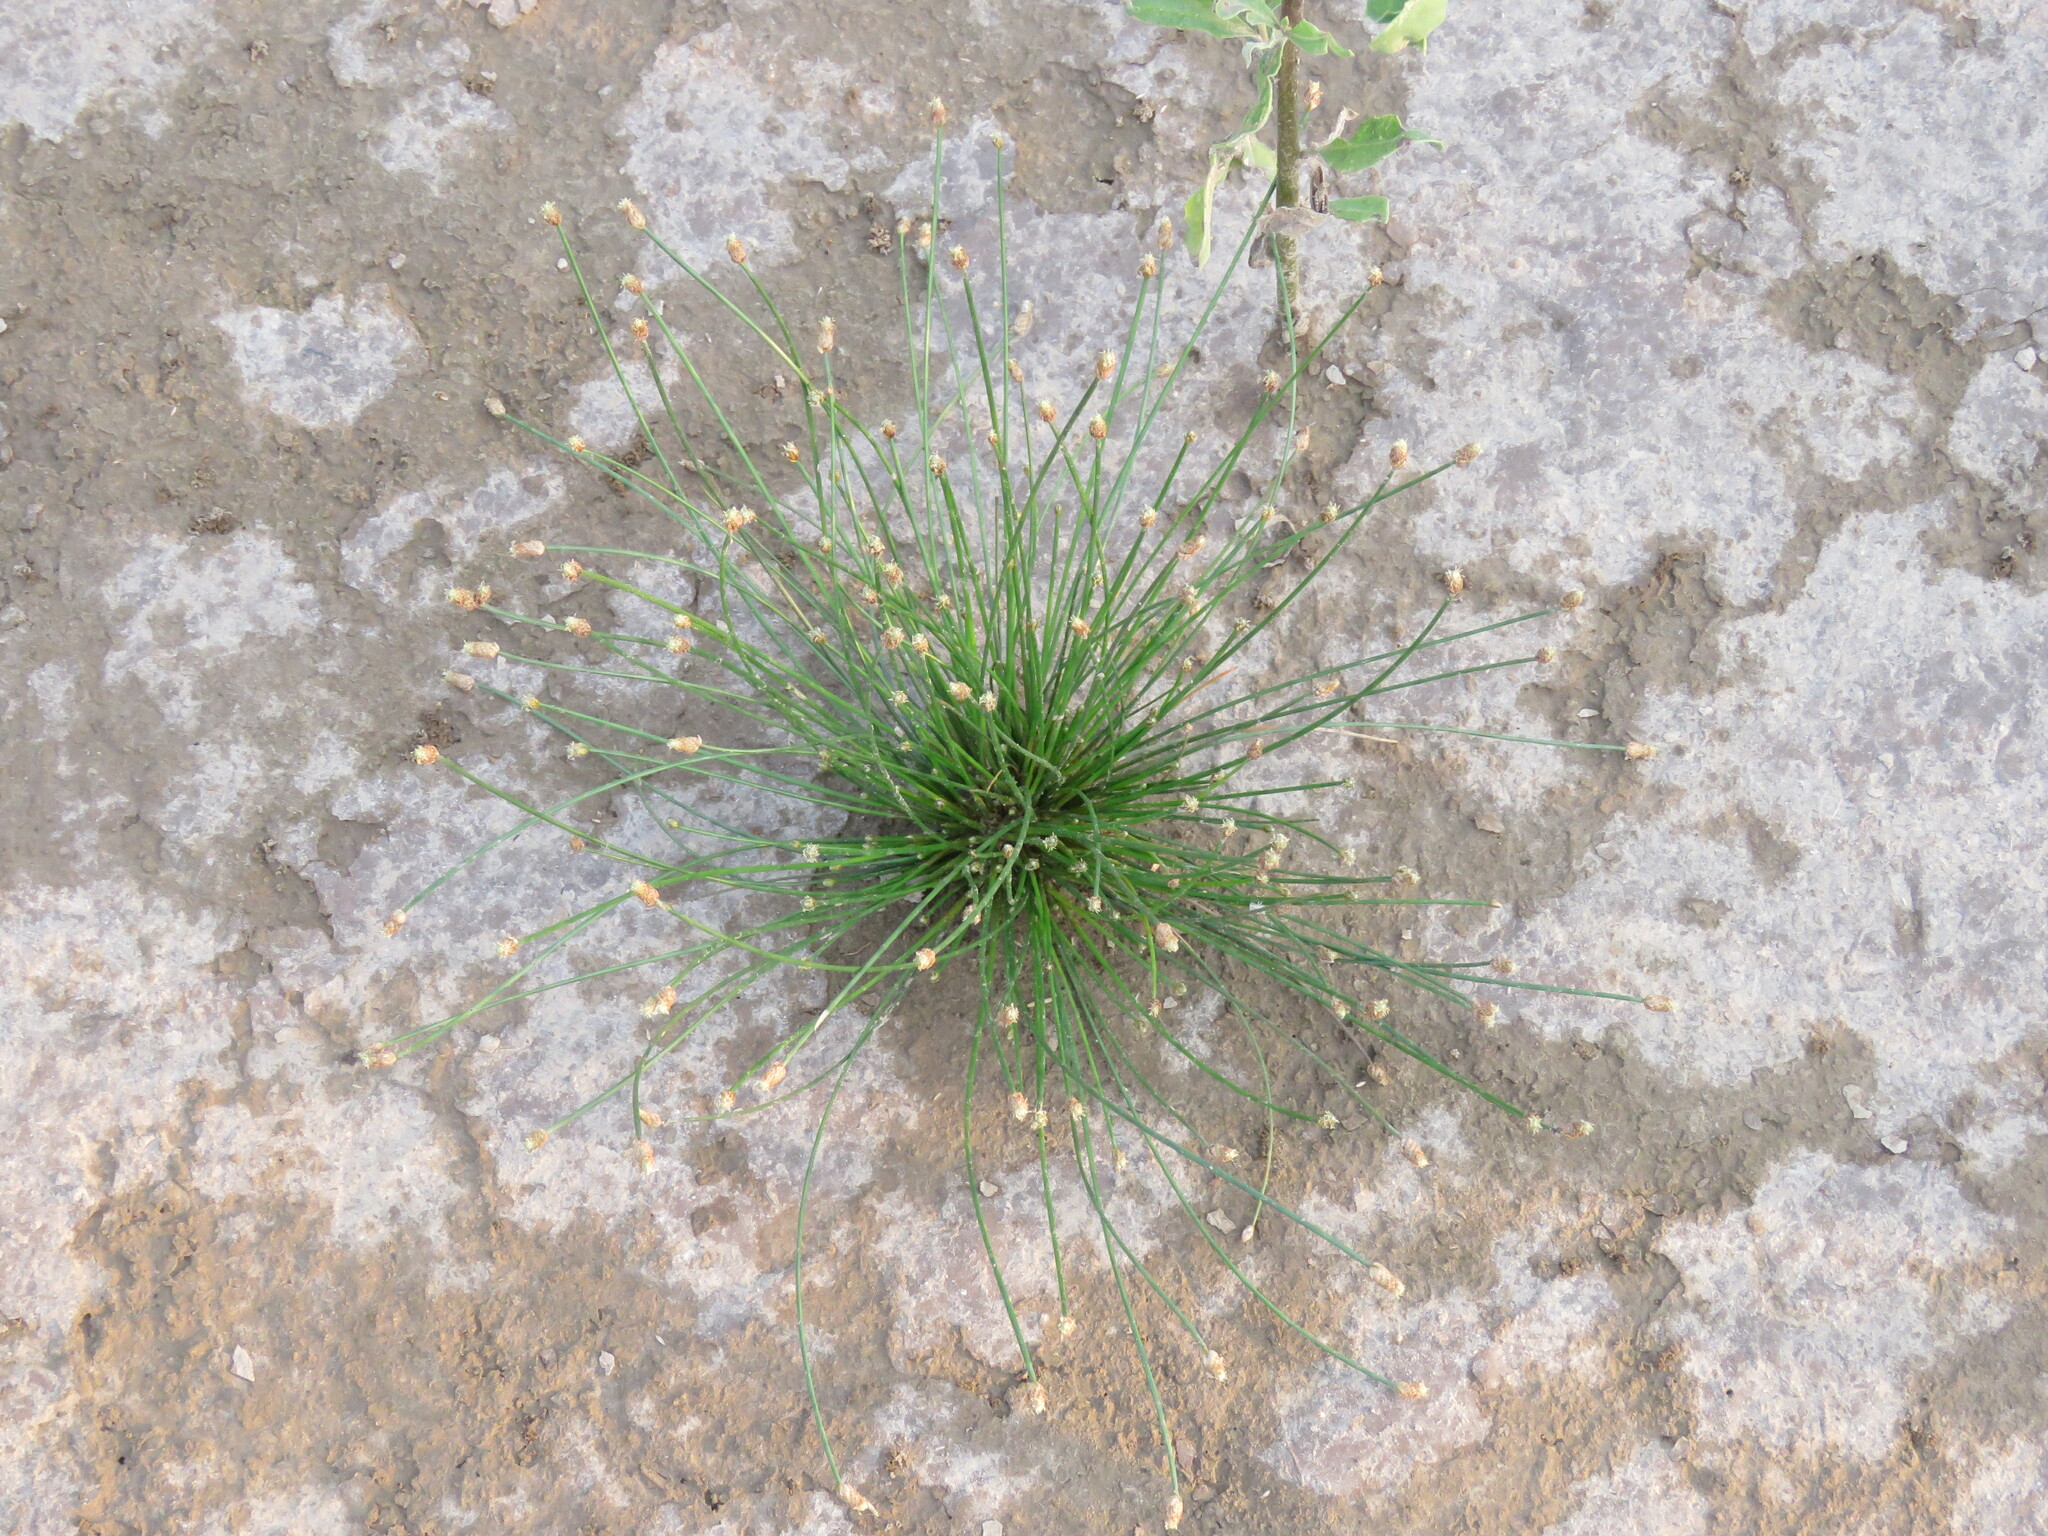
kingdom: Plantae
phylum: Tracheophyta
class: Liliopsida
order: Poales
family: Cyperaceae
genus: Eleocharis
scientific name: Eleocharis geniculata
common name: Canada spikesedge
